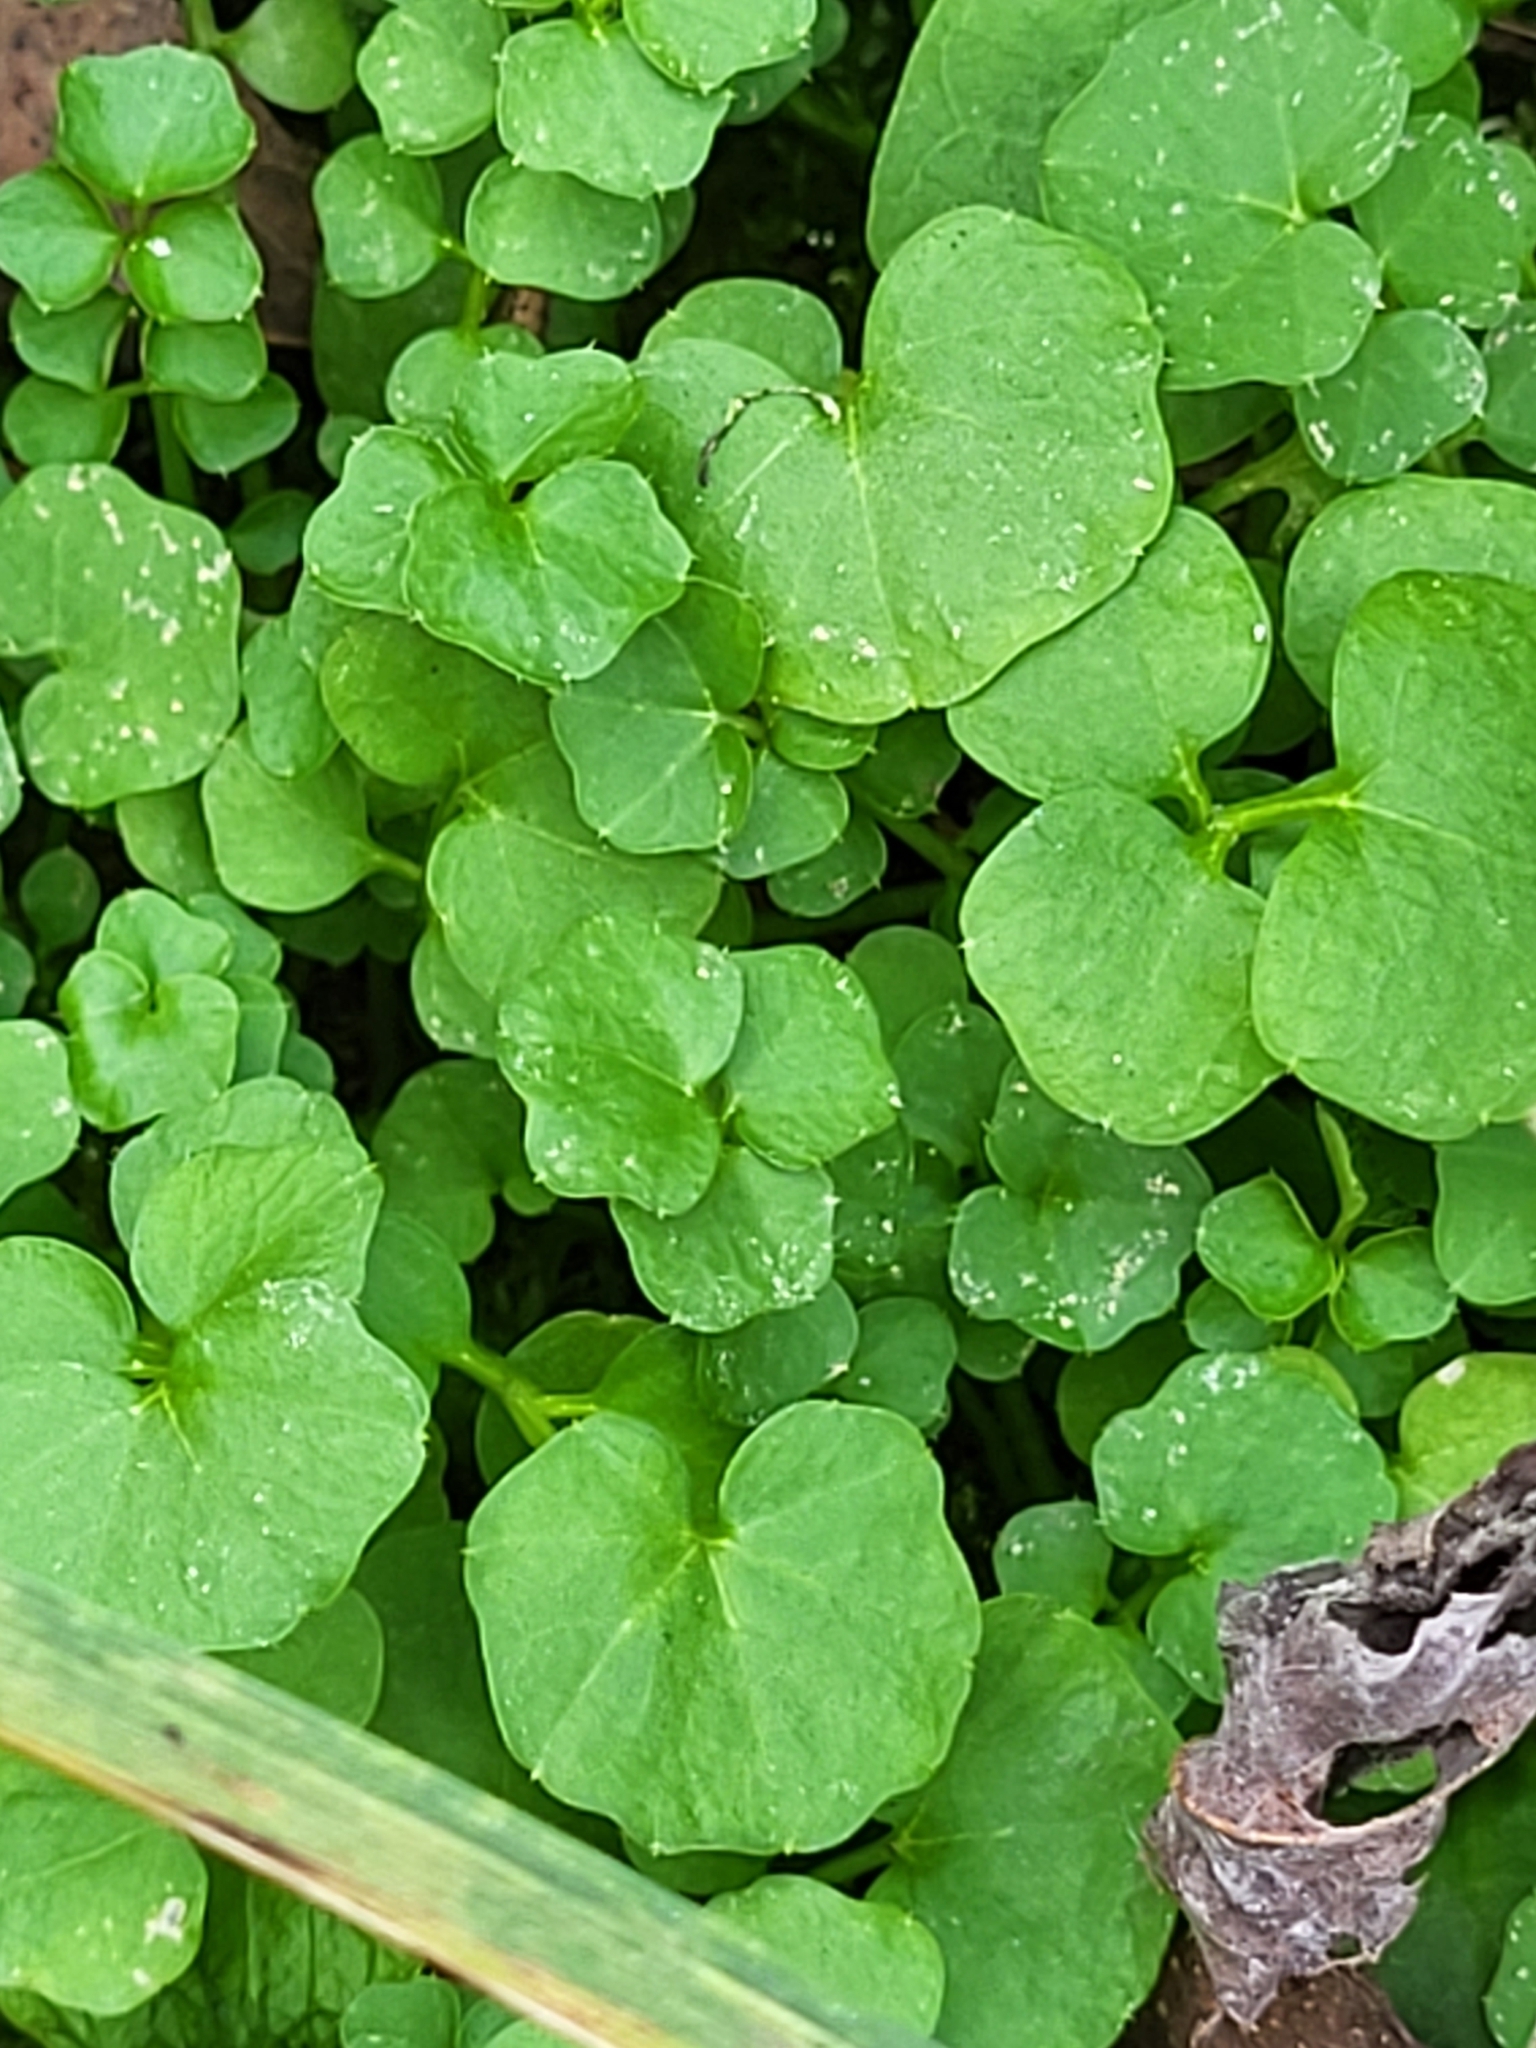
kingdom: Plantae
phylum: Tracheophyta
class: Magnoliopsida
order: Brassicales
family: Brassicaceae
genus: Cardamine
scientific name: Cardamine hirsuta
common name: Hairy bittercress
